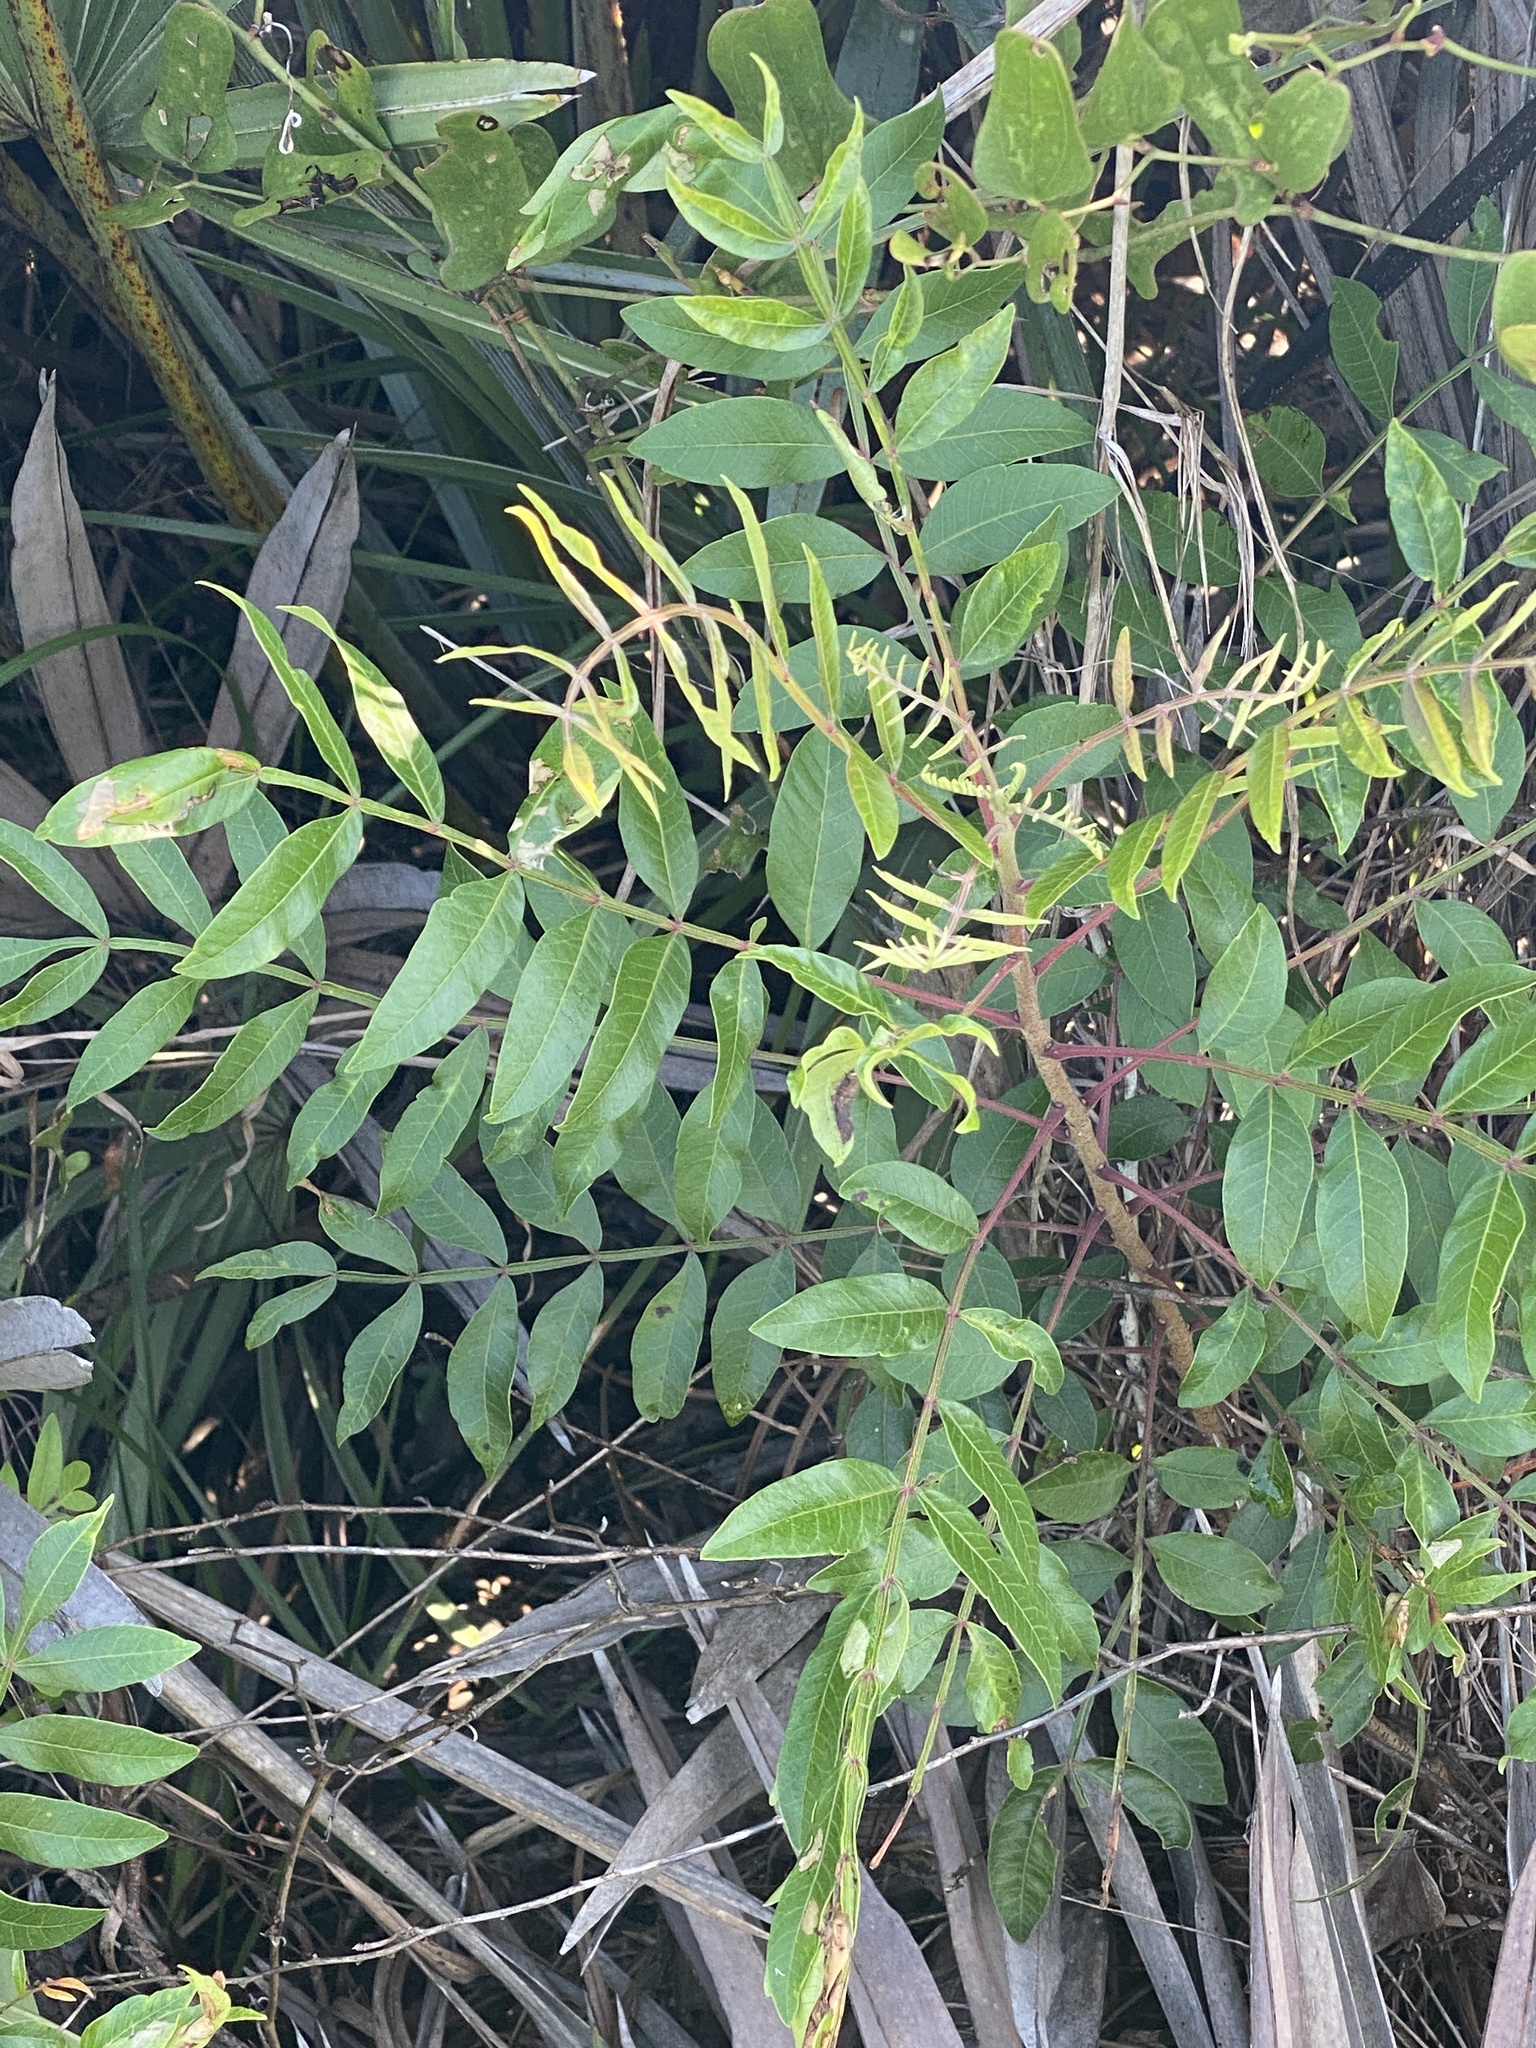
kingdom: Plantae
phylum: Tracheophyta
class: Magnoliopsida
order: Sapindales
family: Anacardiaceae
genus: Rhus
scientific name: Rhus copallina
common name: Shining sumac
